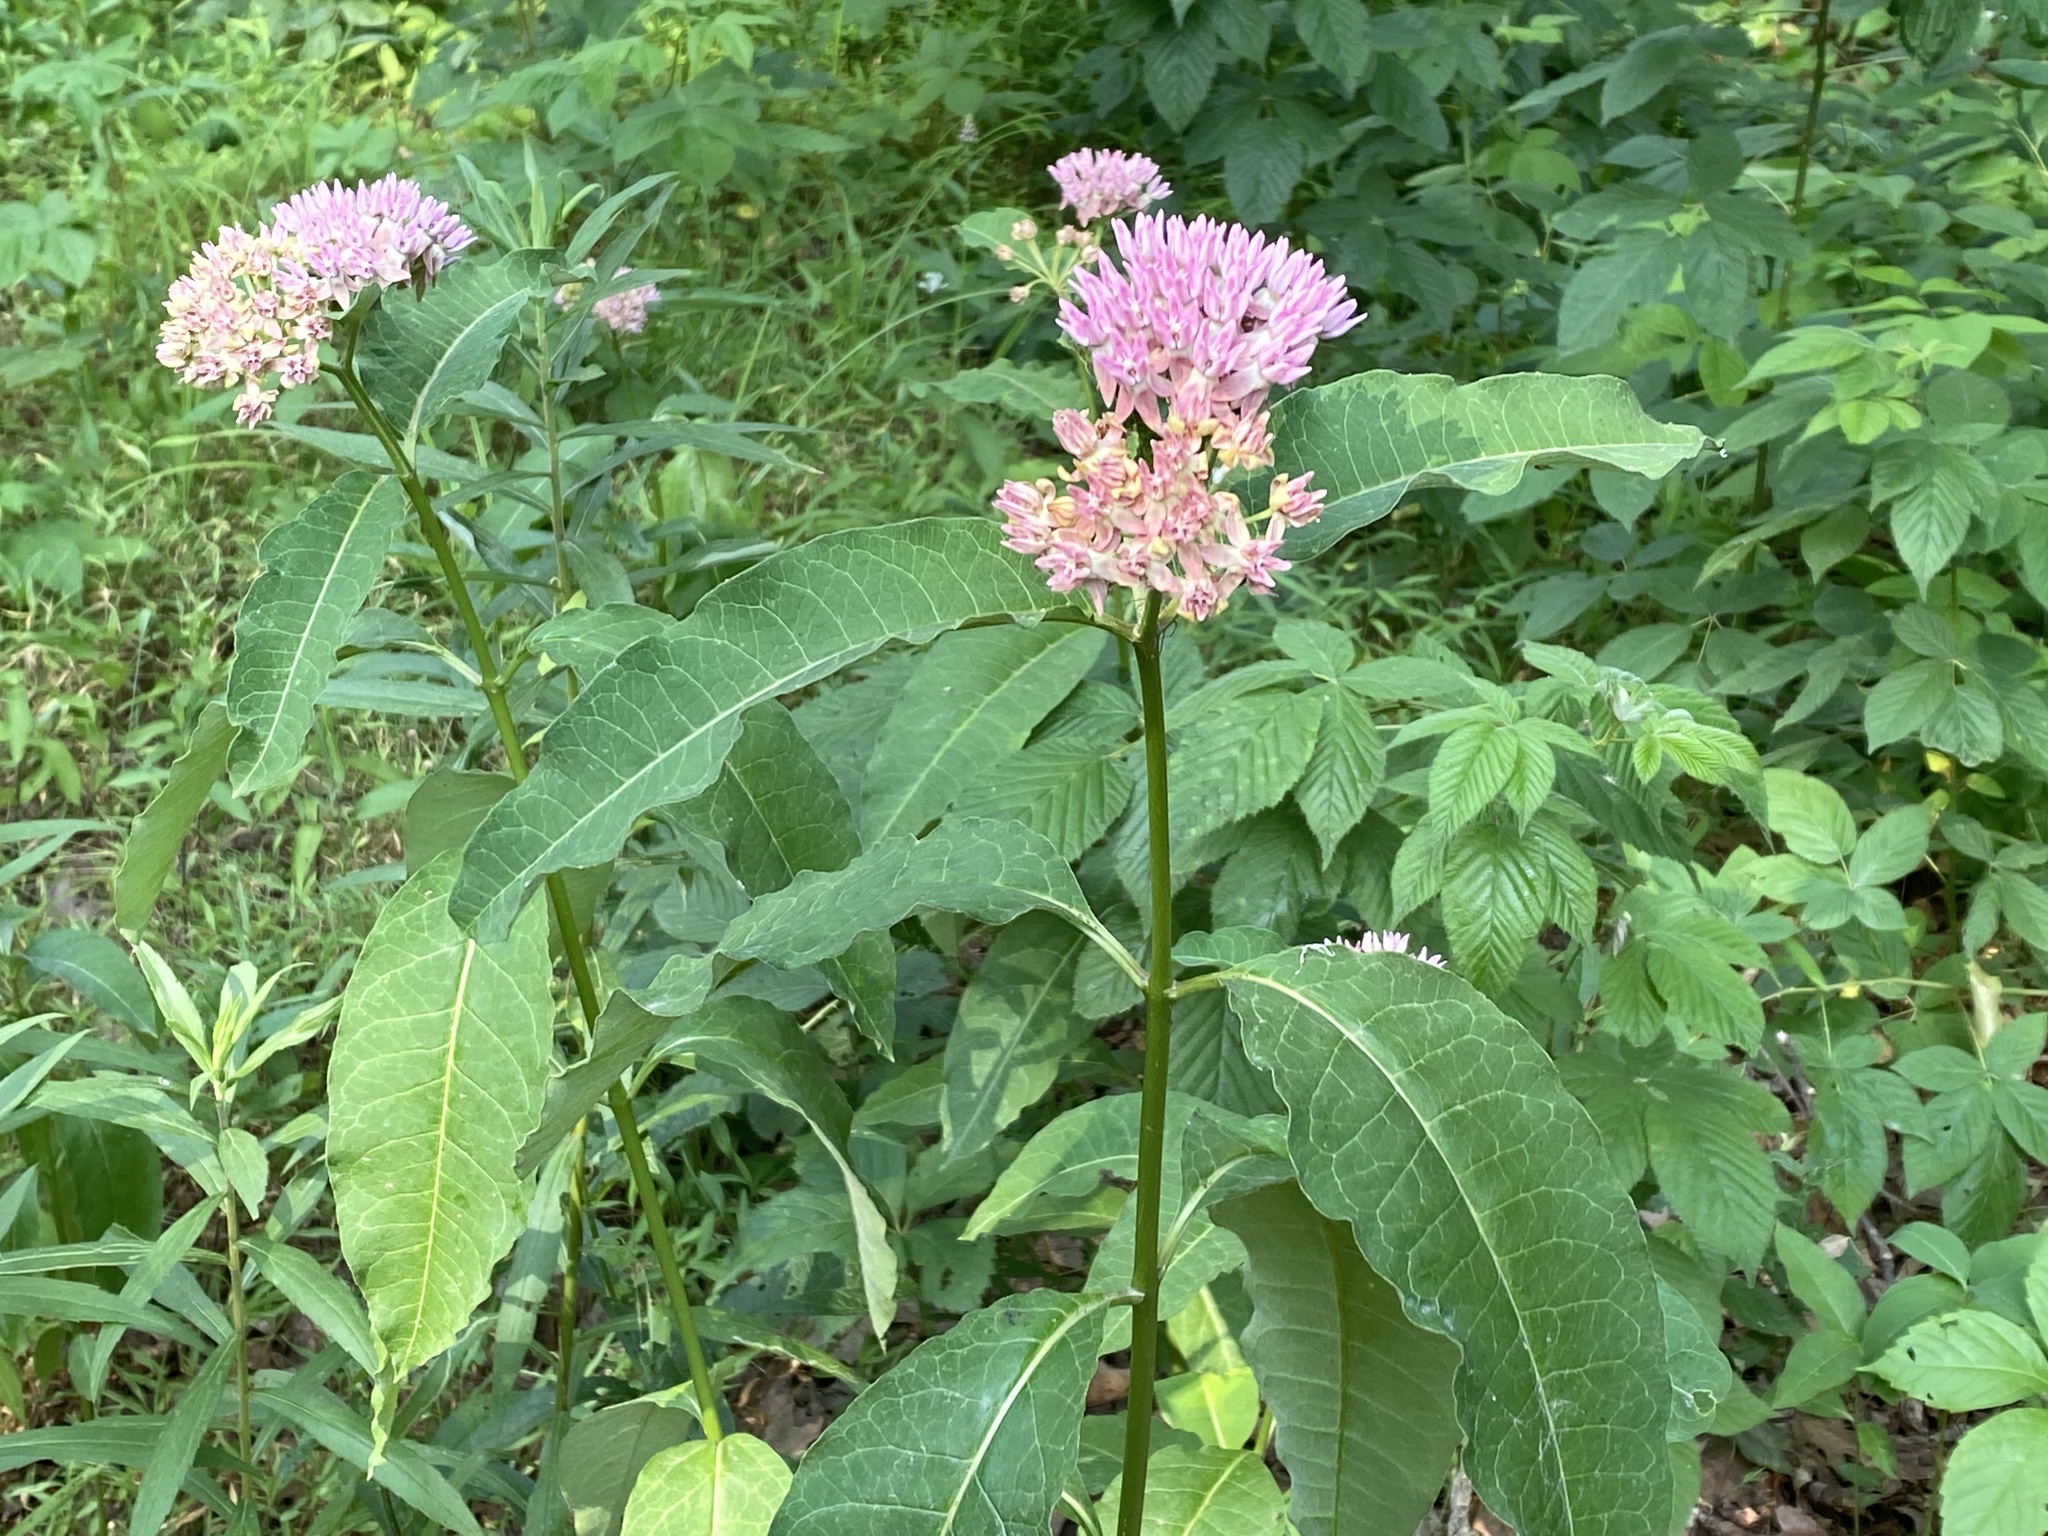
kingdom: Plantae
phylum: Tracheophyta
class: Magnoliopsida
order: Gentianales
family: Apocynaceae
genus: Asclepias
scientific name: Asclepias purpurascens
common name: Purple milkweed
